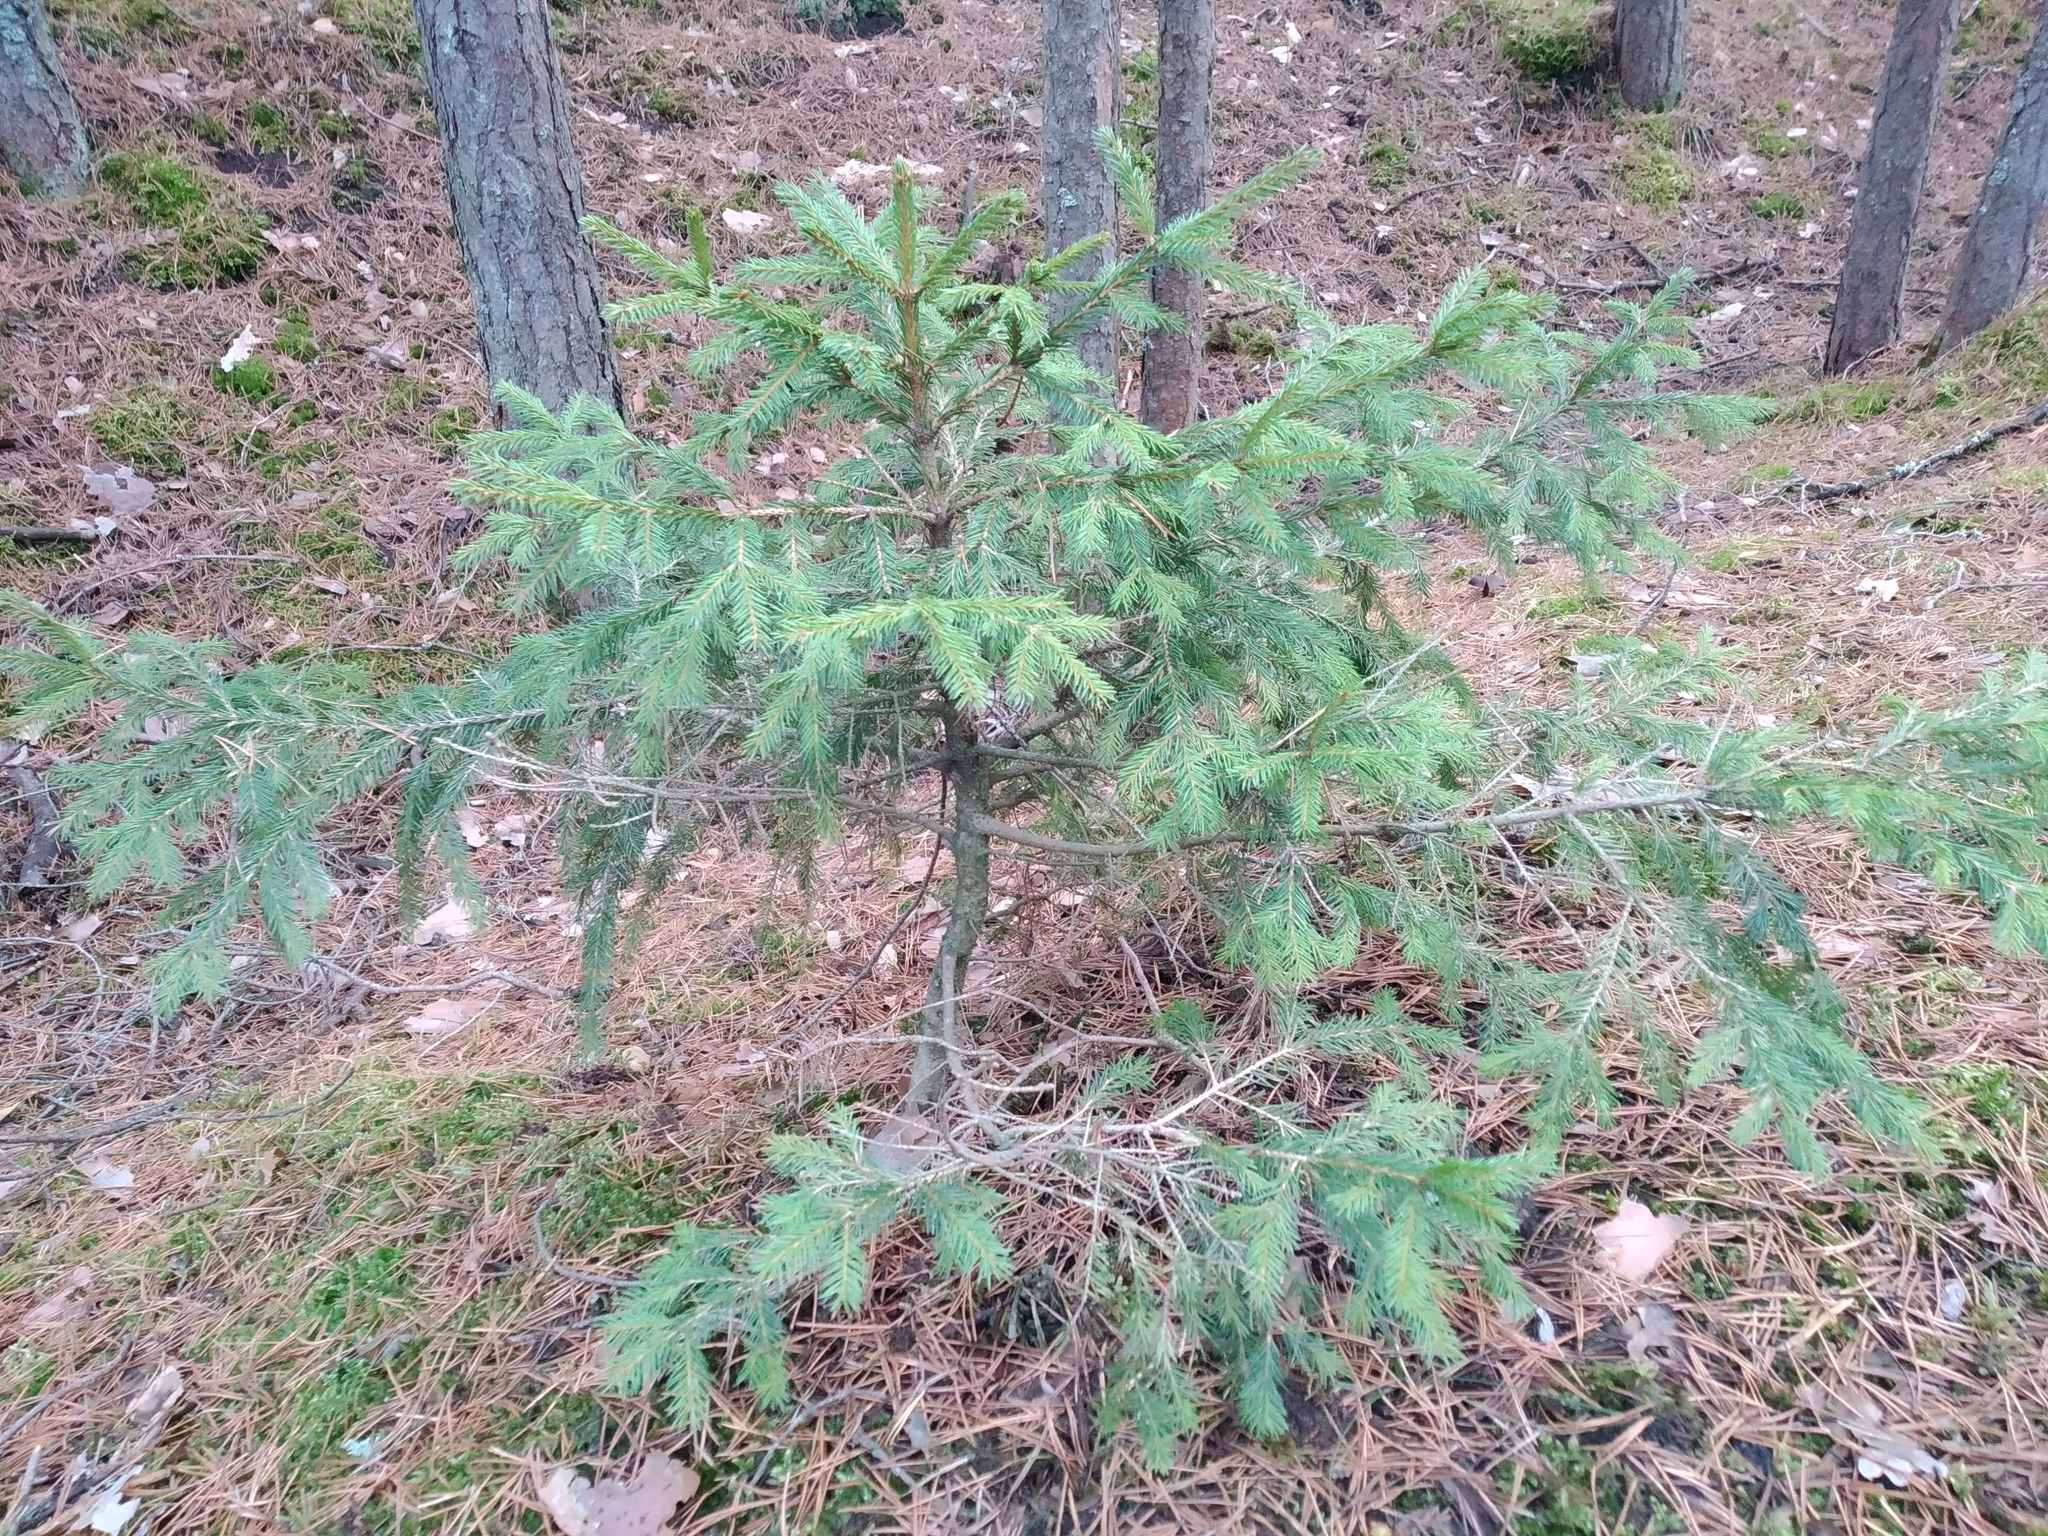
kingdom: Plantae
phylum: Tracheophyta
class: Pinopsida
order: Pinales
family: Pinaceae
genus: Picea
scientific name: Picea abies
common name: Norway spruce
